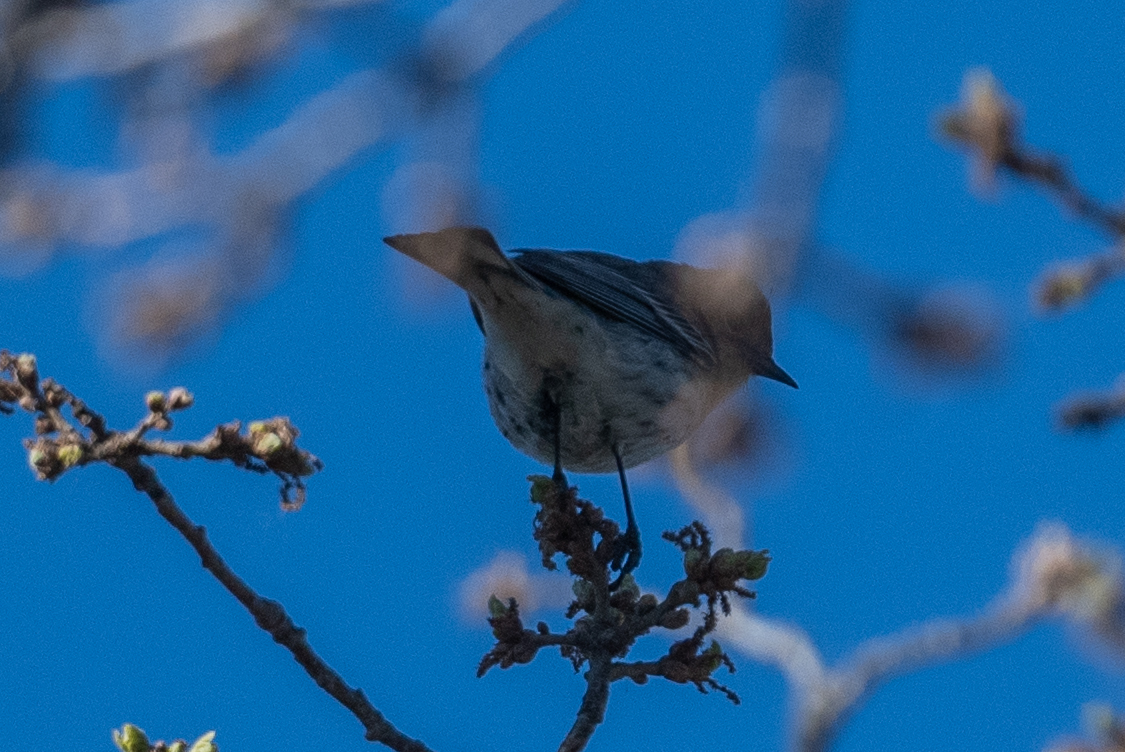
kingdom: Animalia
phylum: Chordata
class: Aves
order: Passeriformes
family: Parulidae
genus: Setophaga
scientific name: Setophaga coronata
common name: Myrtle warbler
